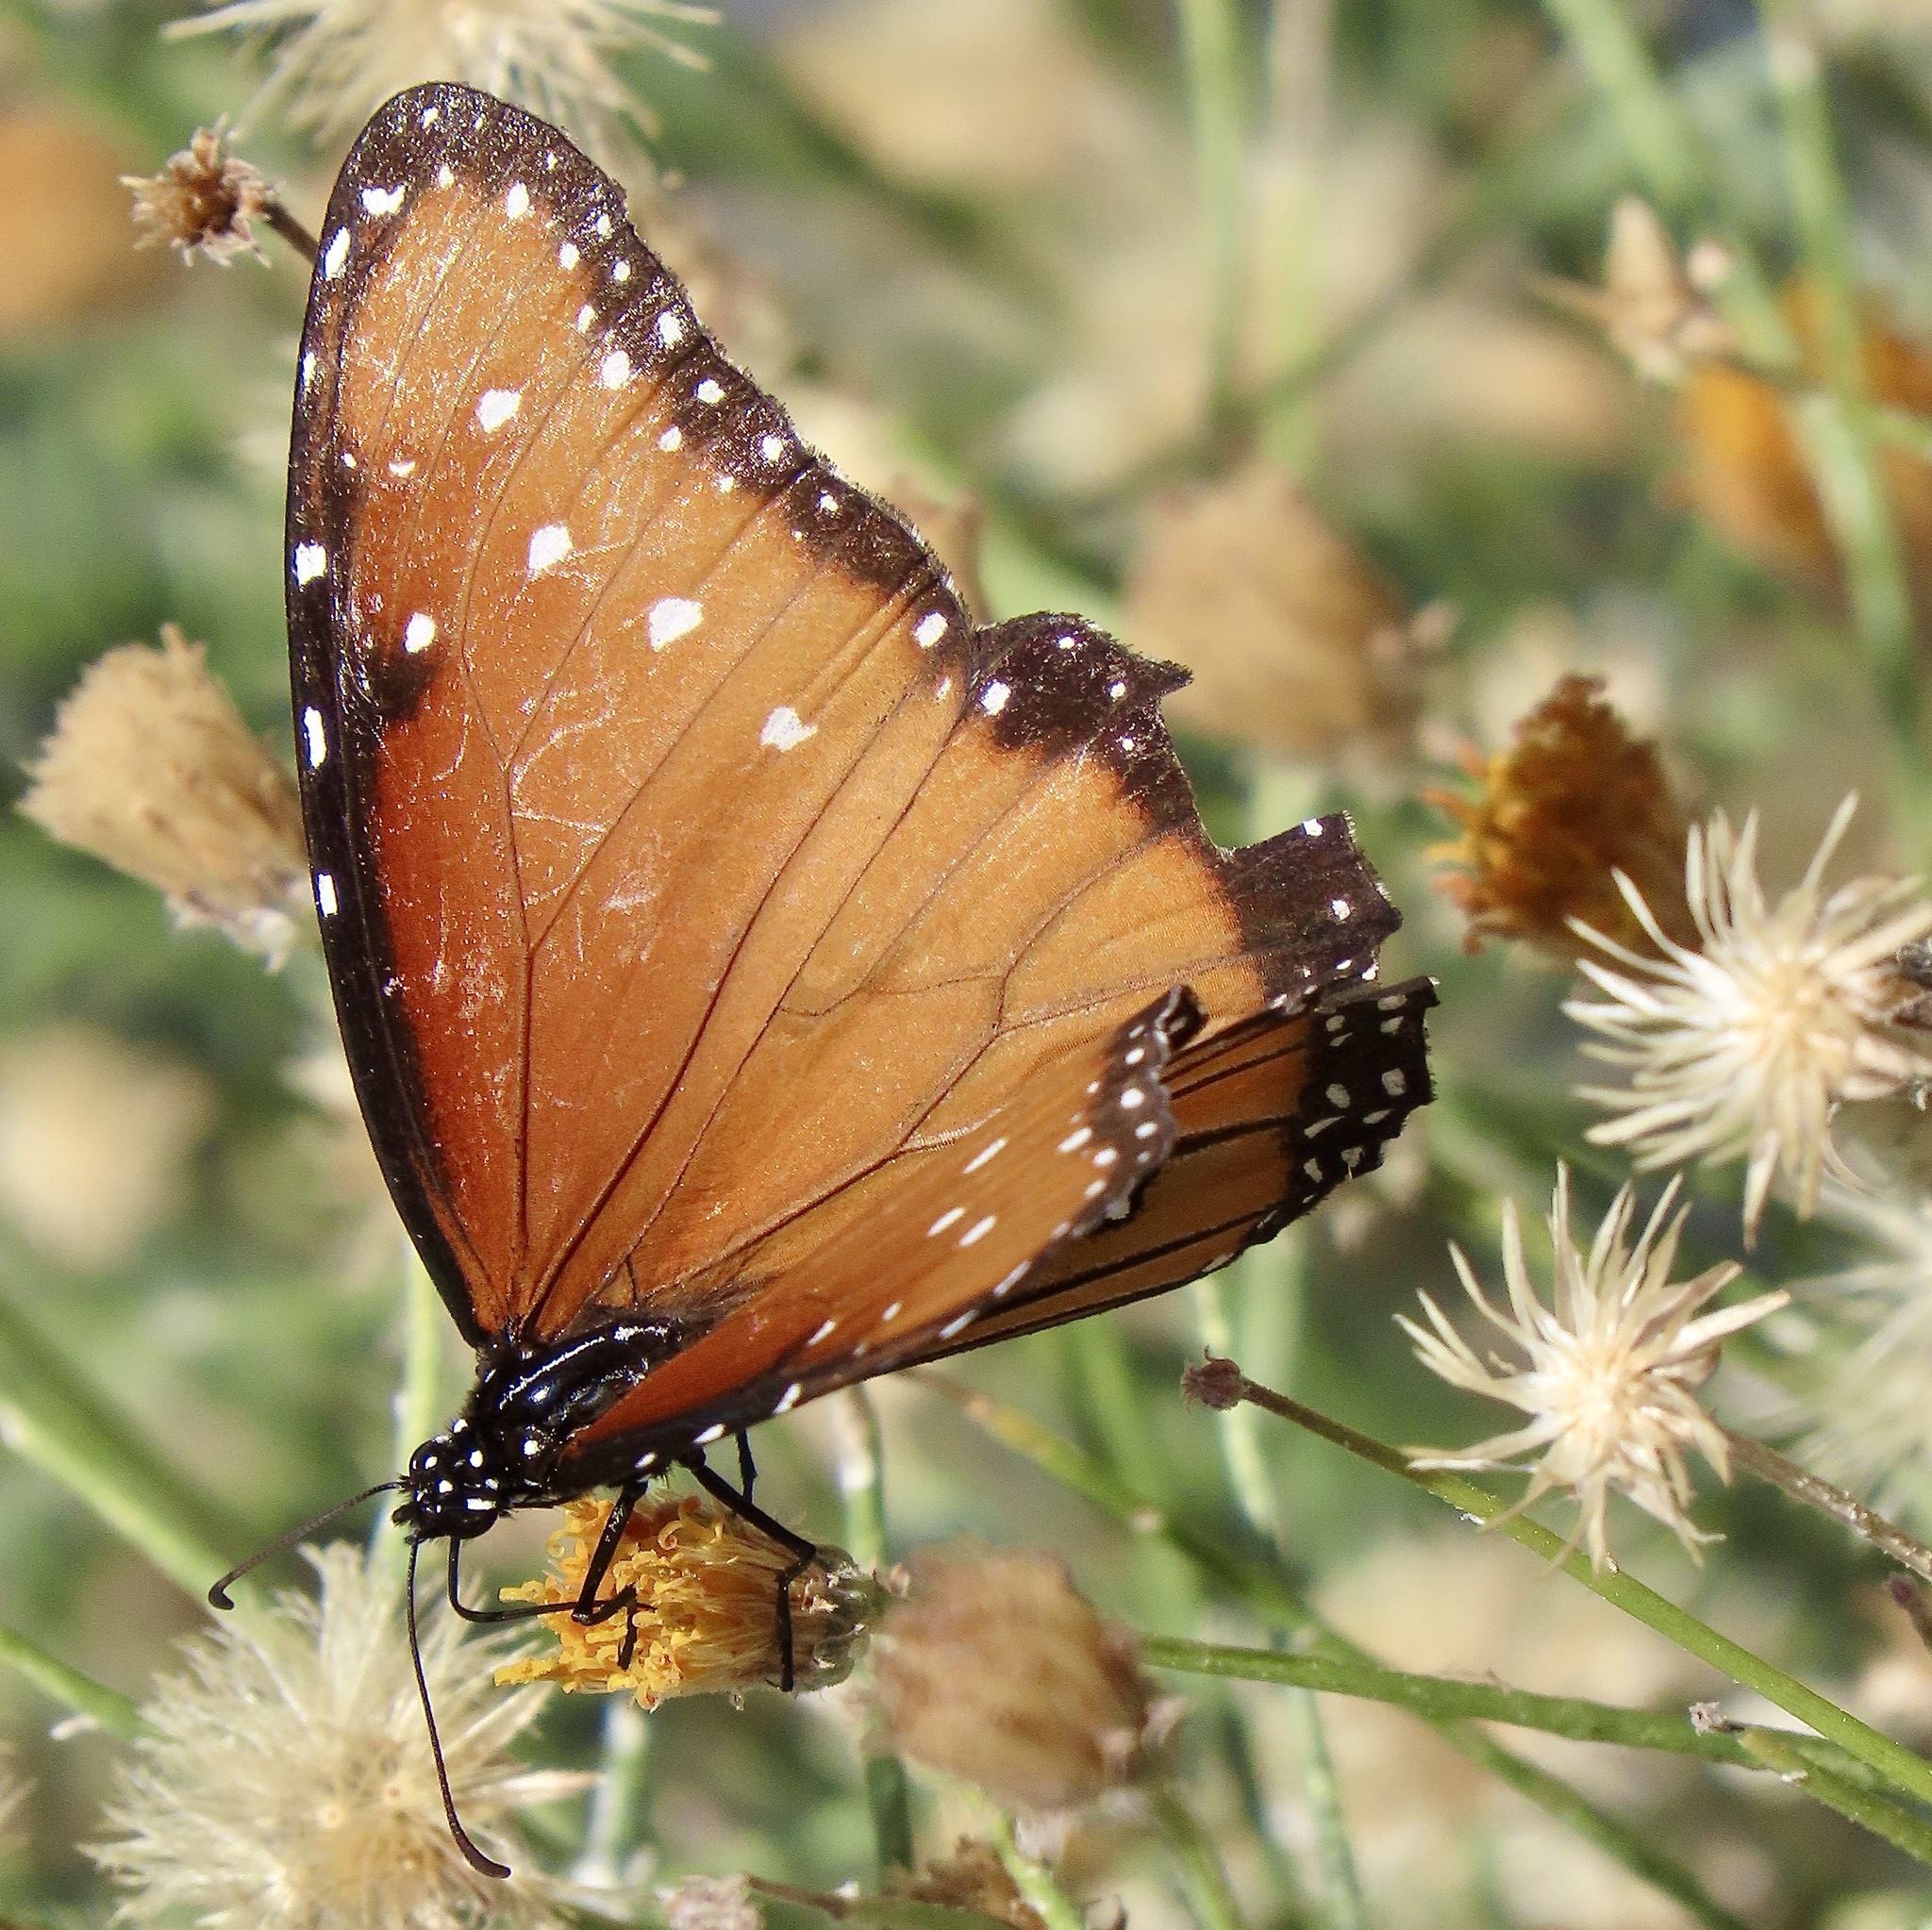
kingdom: Animalia
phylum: Arthropoda
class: Insecta
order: Lepidoptera
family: Nymphalidae
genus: Danaus
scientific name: Danaus gilippus
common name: Queen
